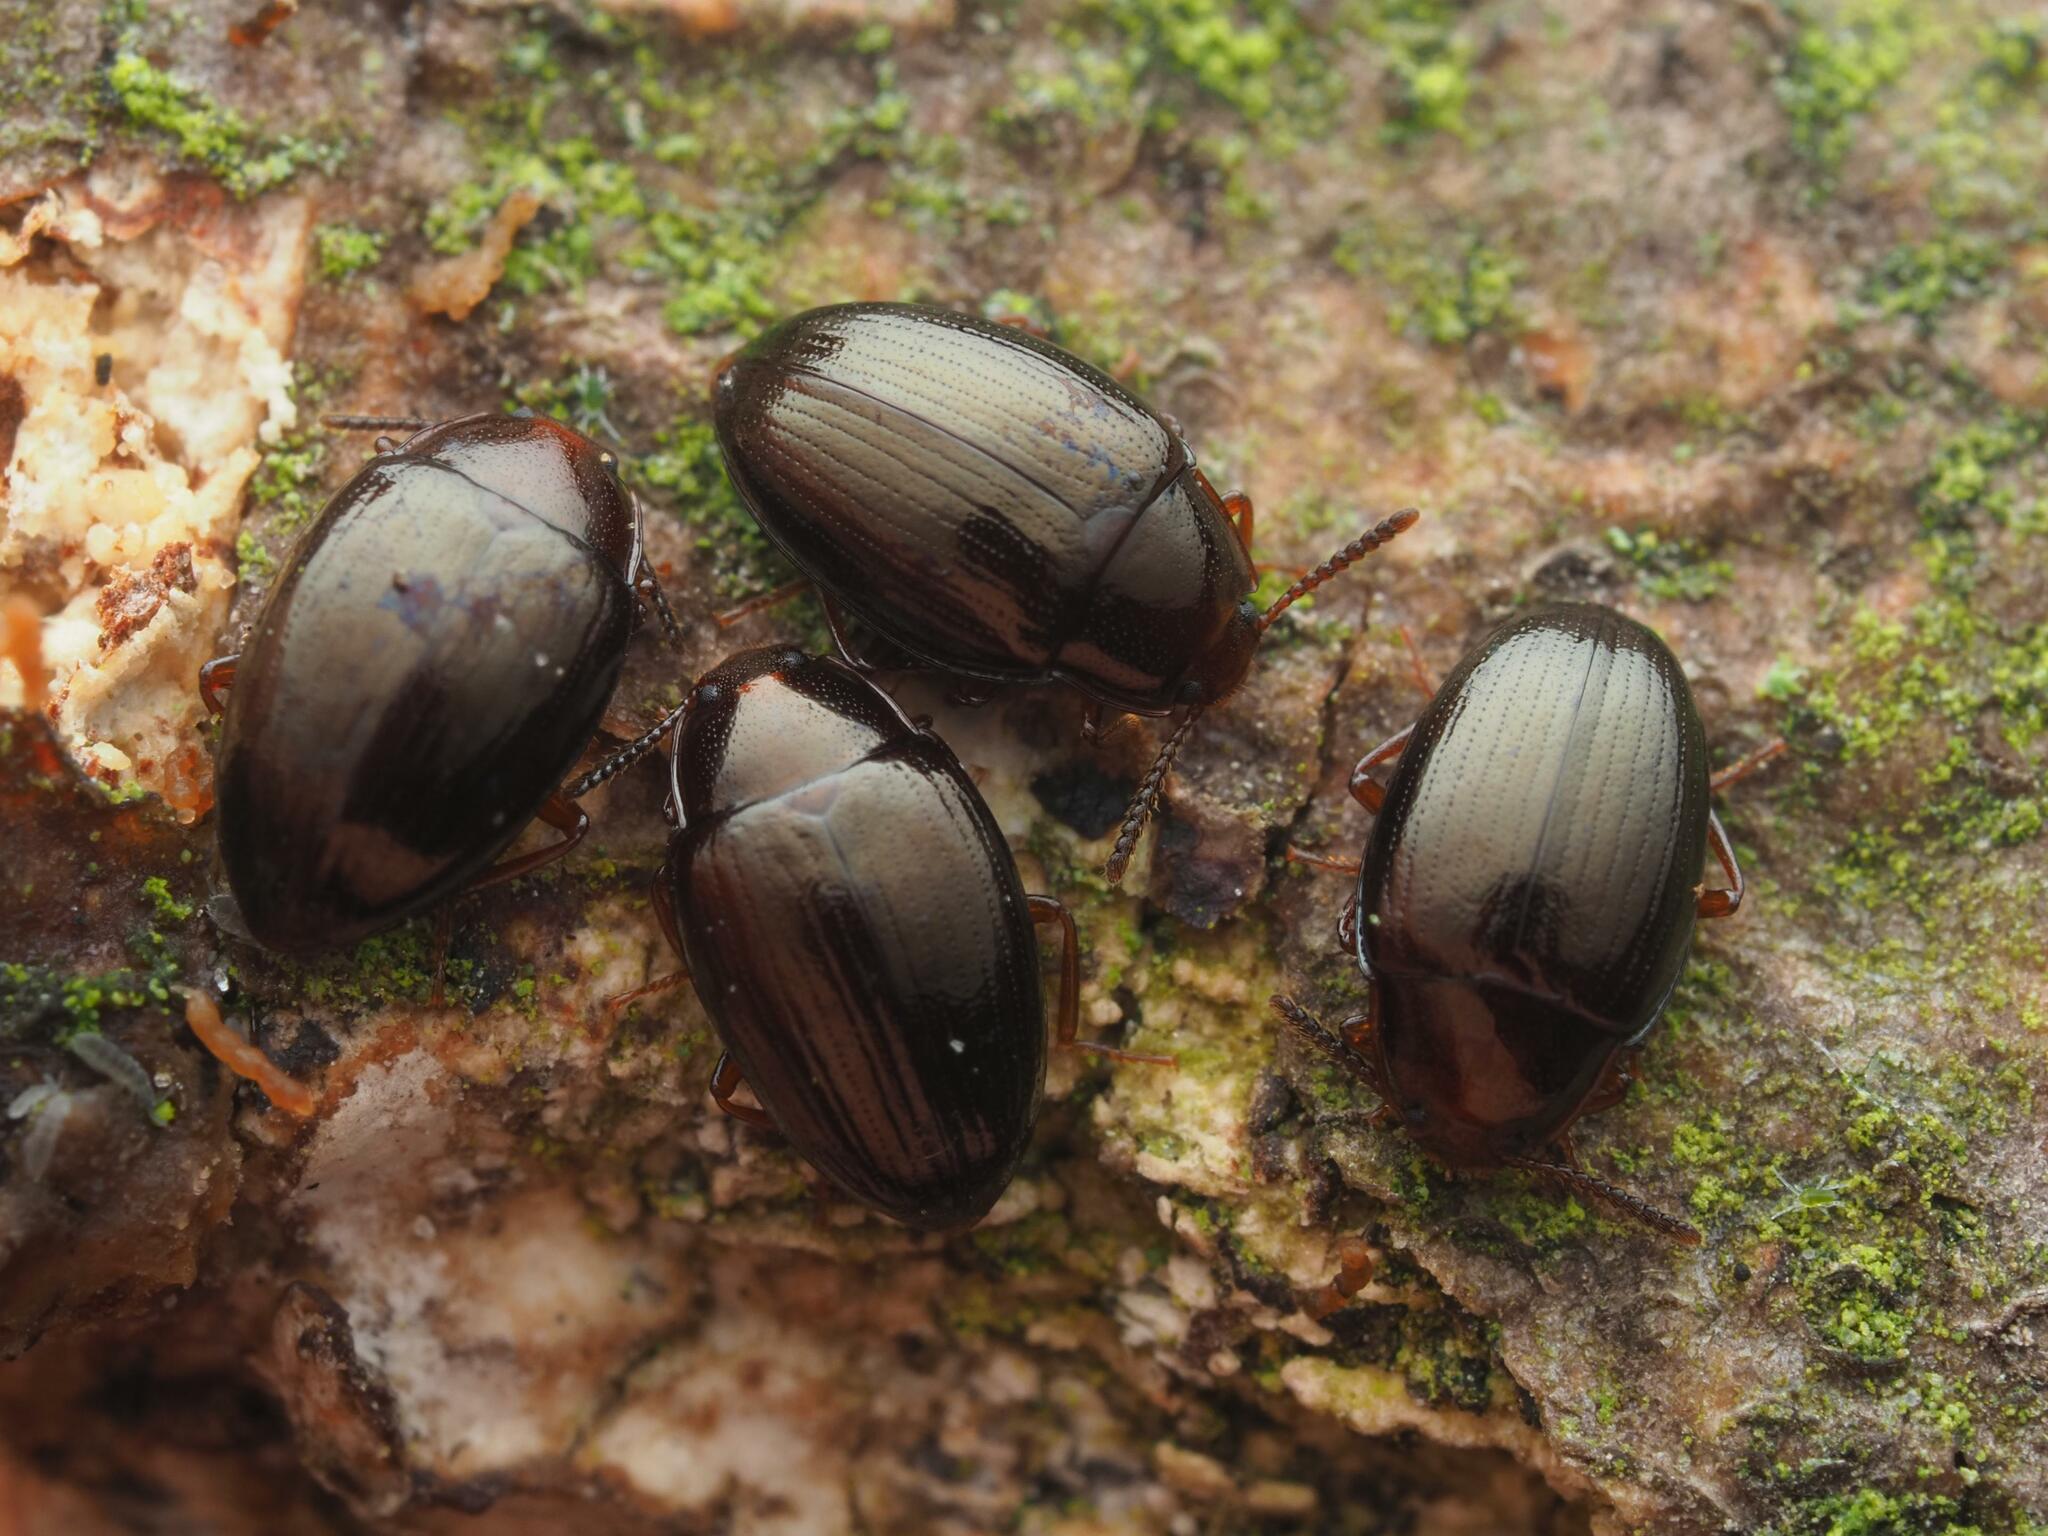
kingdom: Animalia
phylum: Arthropoda
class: Insecta
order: Coleoptera
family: Tenebrionidae
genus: Blapstinus
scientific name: Blapstinus metallicus
